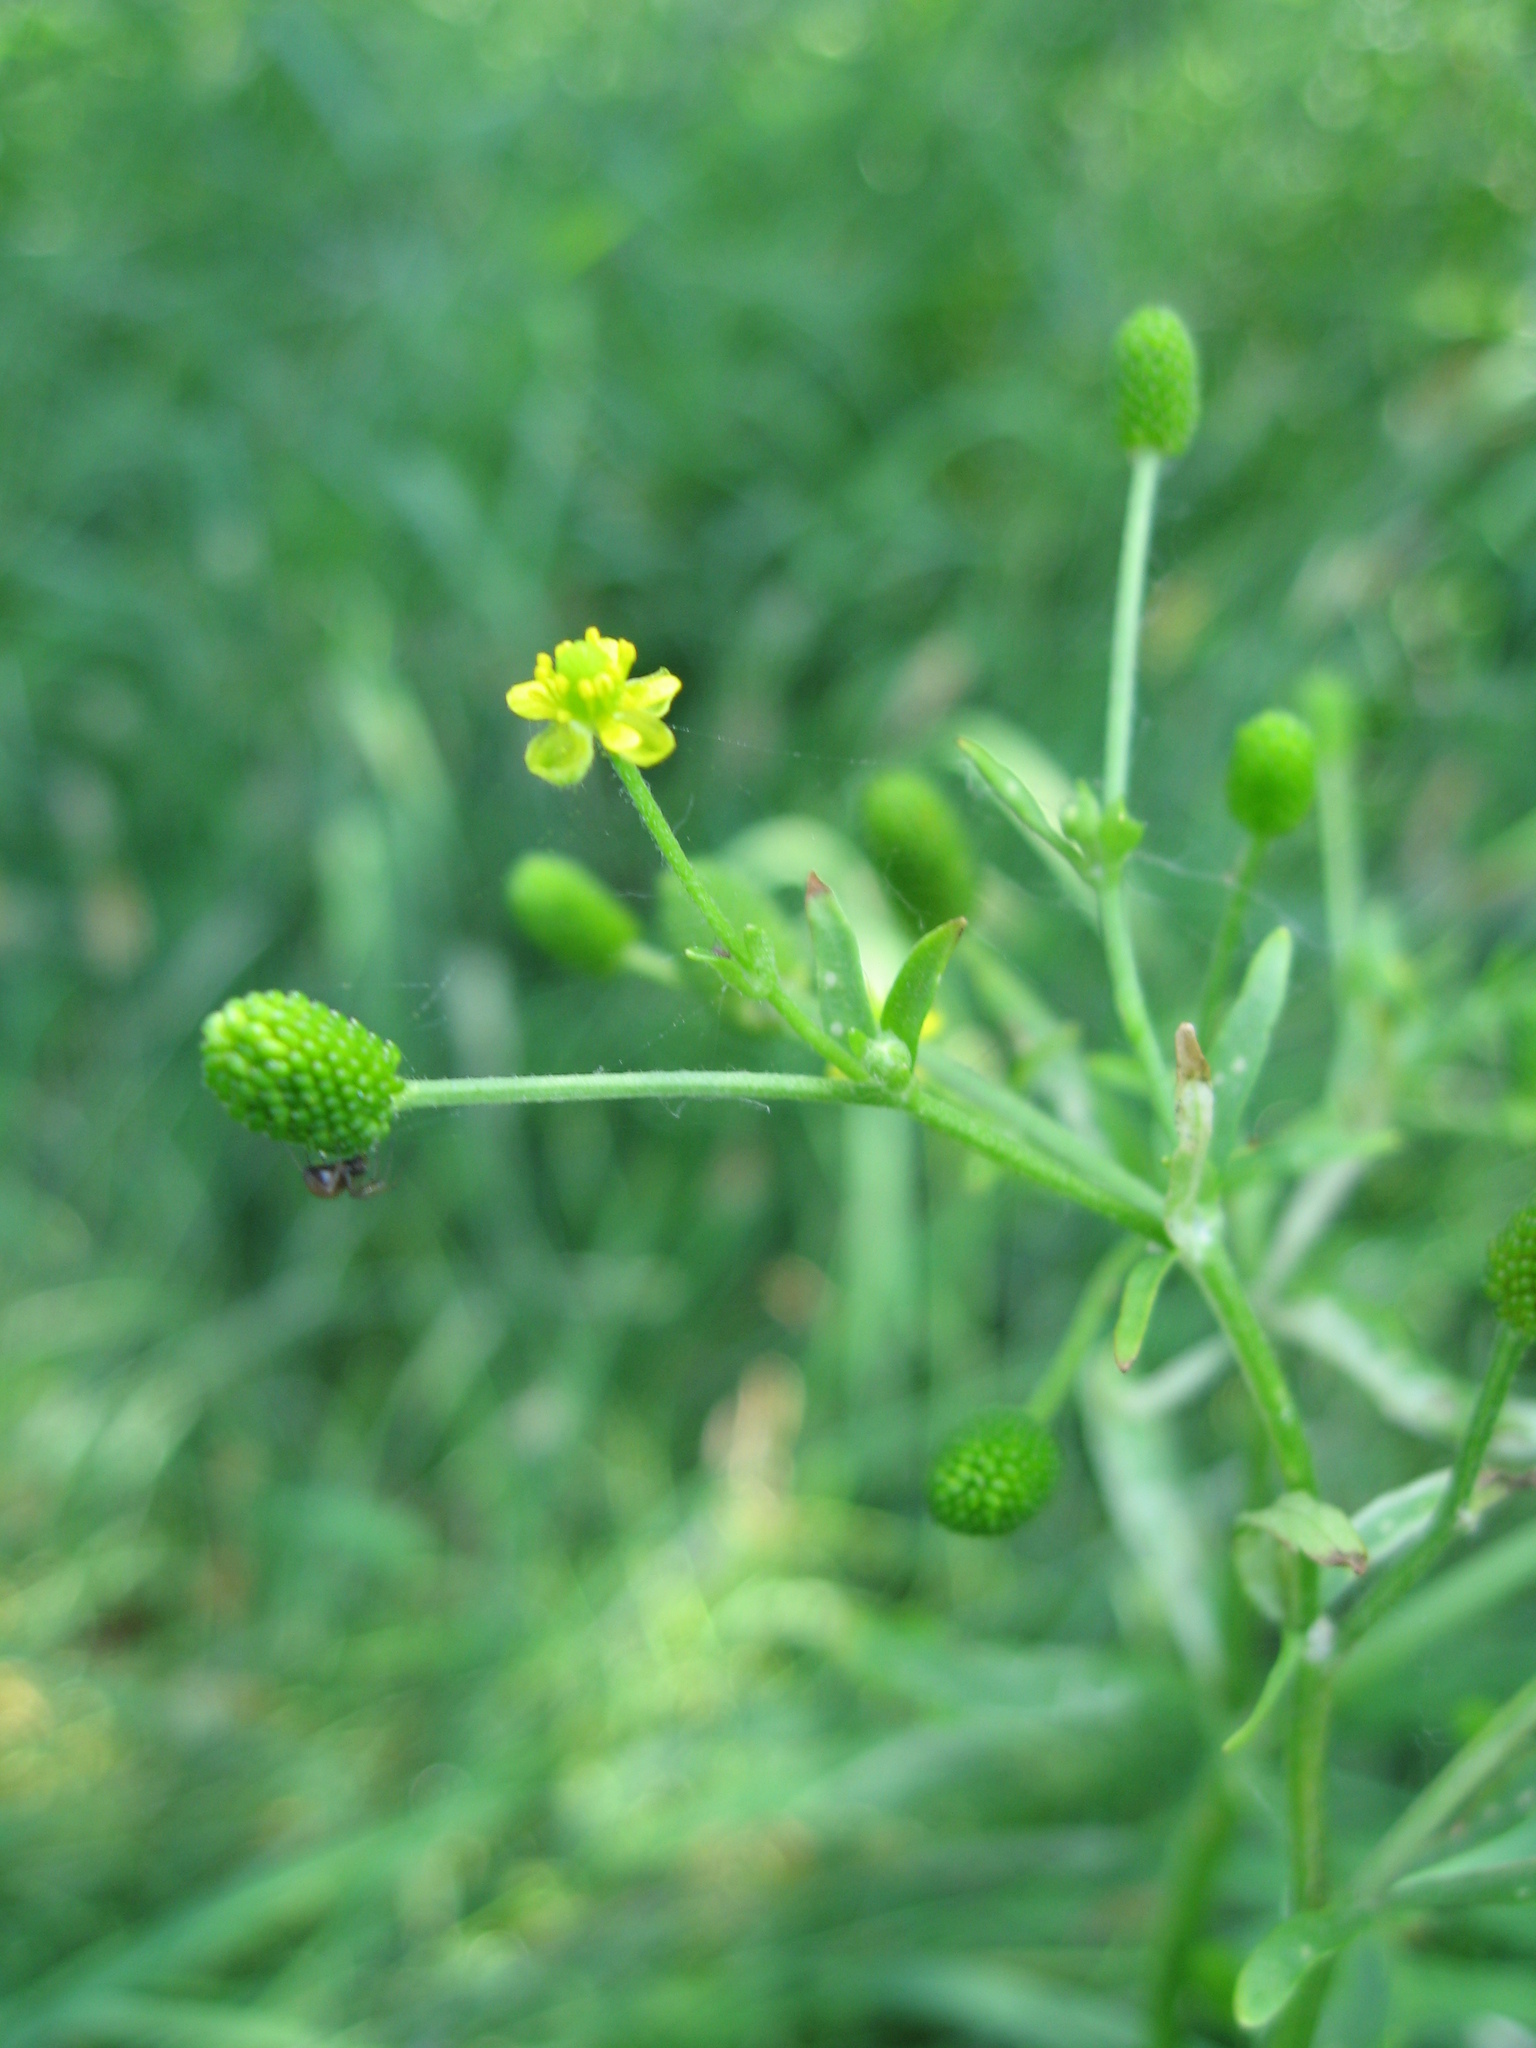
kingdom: Plantae
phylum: Tracheophyta
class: Magnoliopsida
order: Ranunculales
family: Ranunculaceae
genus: Ranunculus
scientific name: Ranunculus sceleratus
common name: Celery-leaved buttercup
